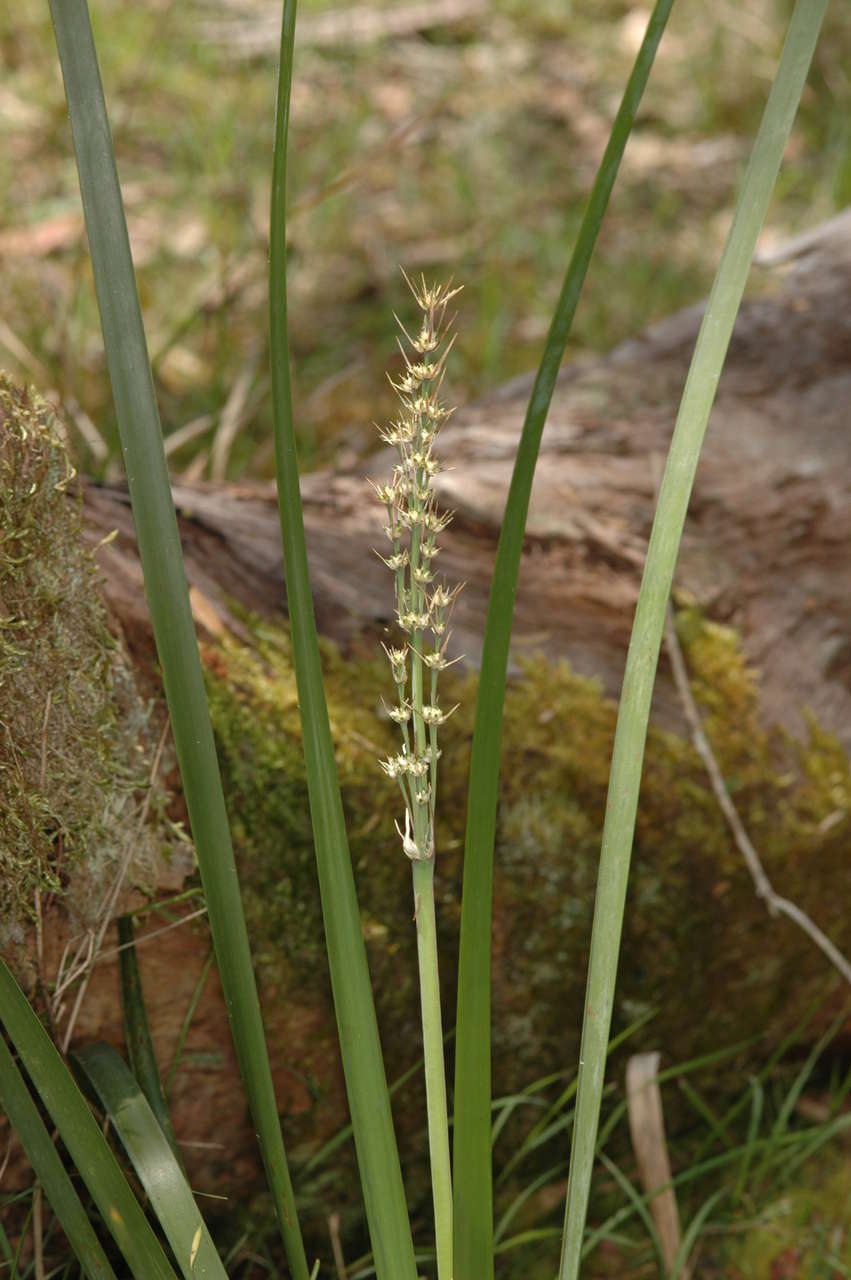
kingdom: Plantae
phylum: Tracheophyta
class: Liliopsida
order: Asparagales
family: Asparagaceae
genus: Lomandra
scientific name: Lomandra longifolia
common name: Longleaf mat-rush
